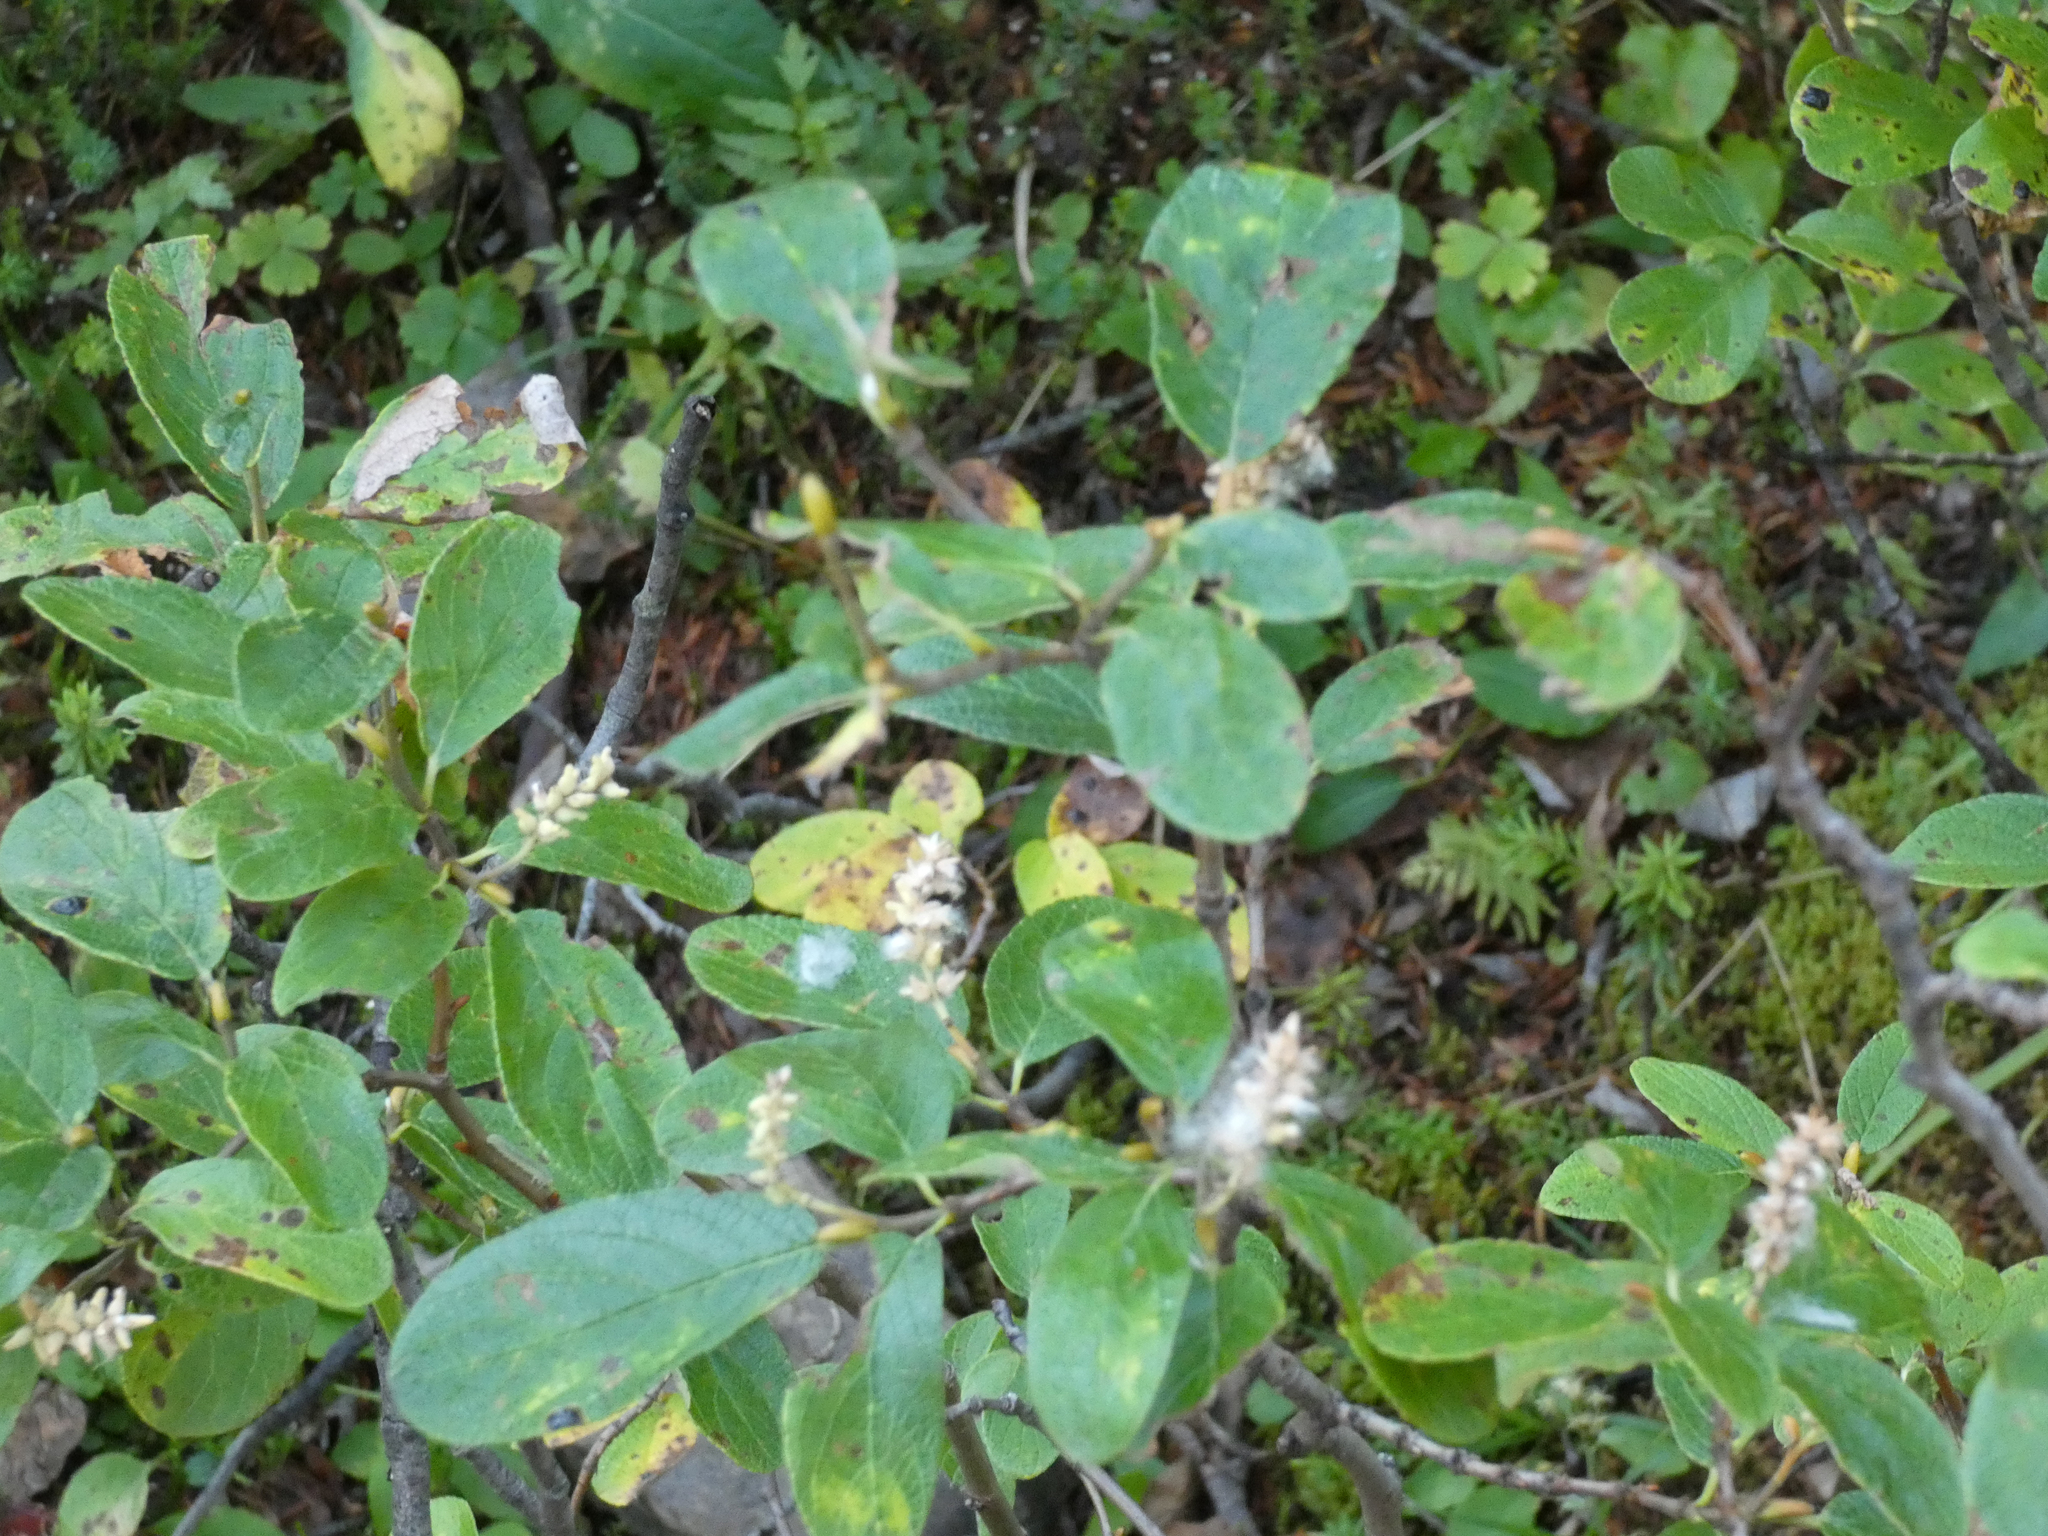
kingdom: Plantae
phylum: Tracheophyta
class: Magnoliopsida
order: Malpighiales
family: Salicaceae
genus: Salix
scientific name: Salix vestita
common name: Hairy willow
